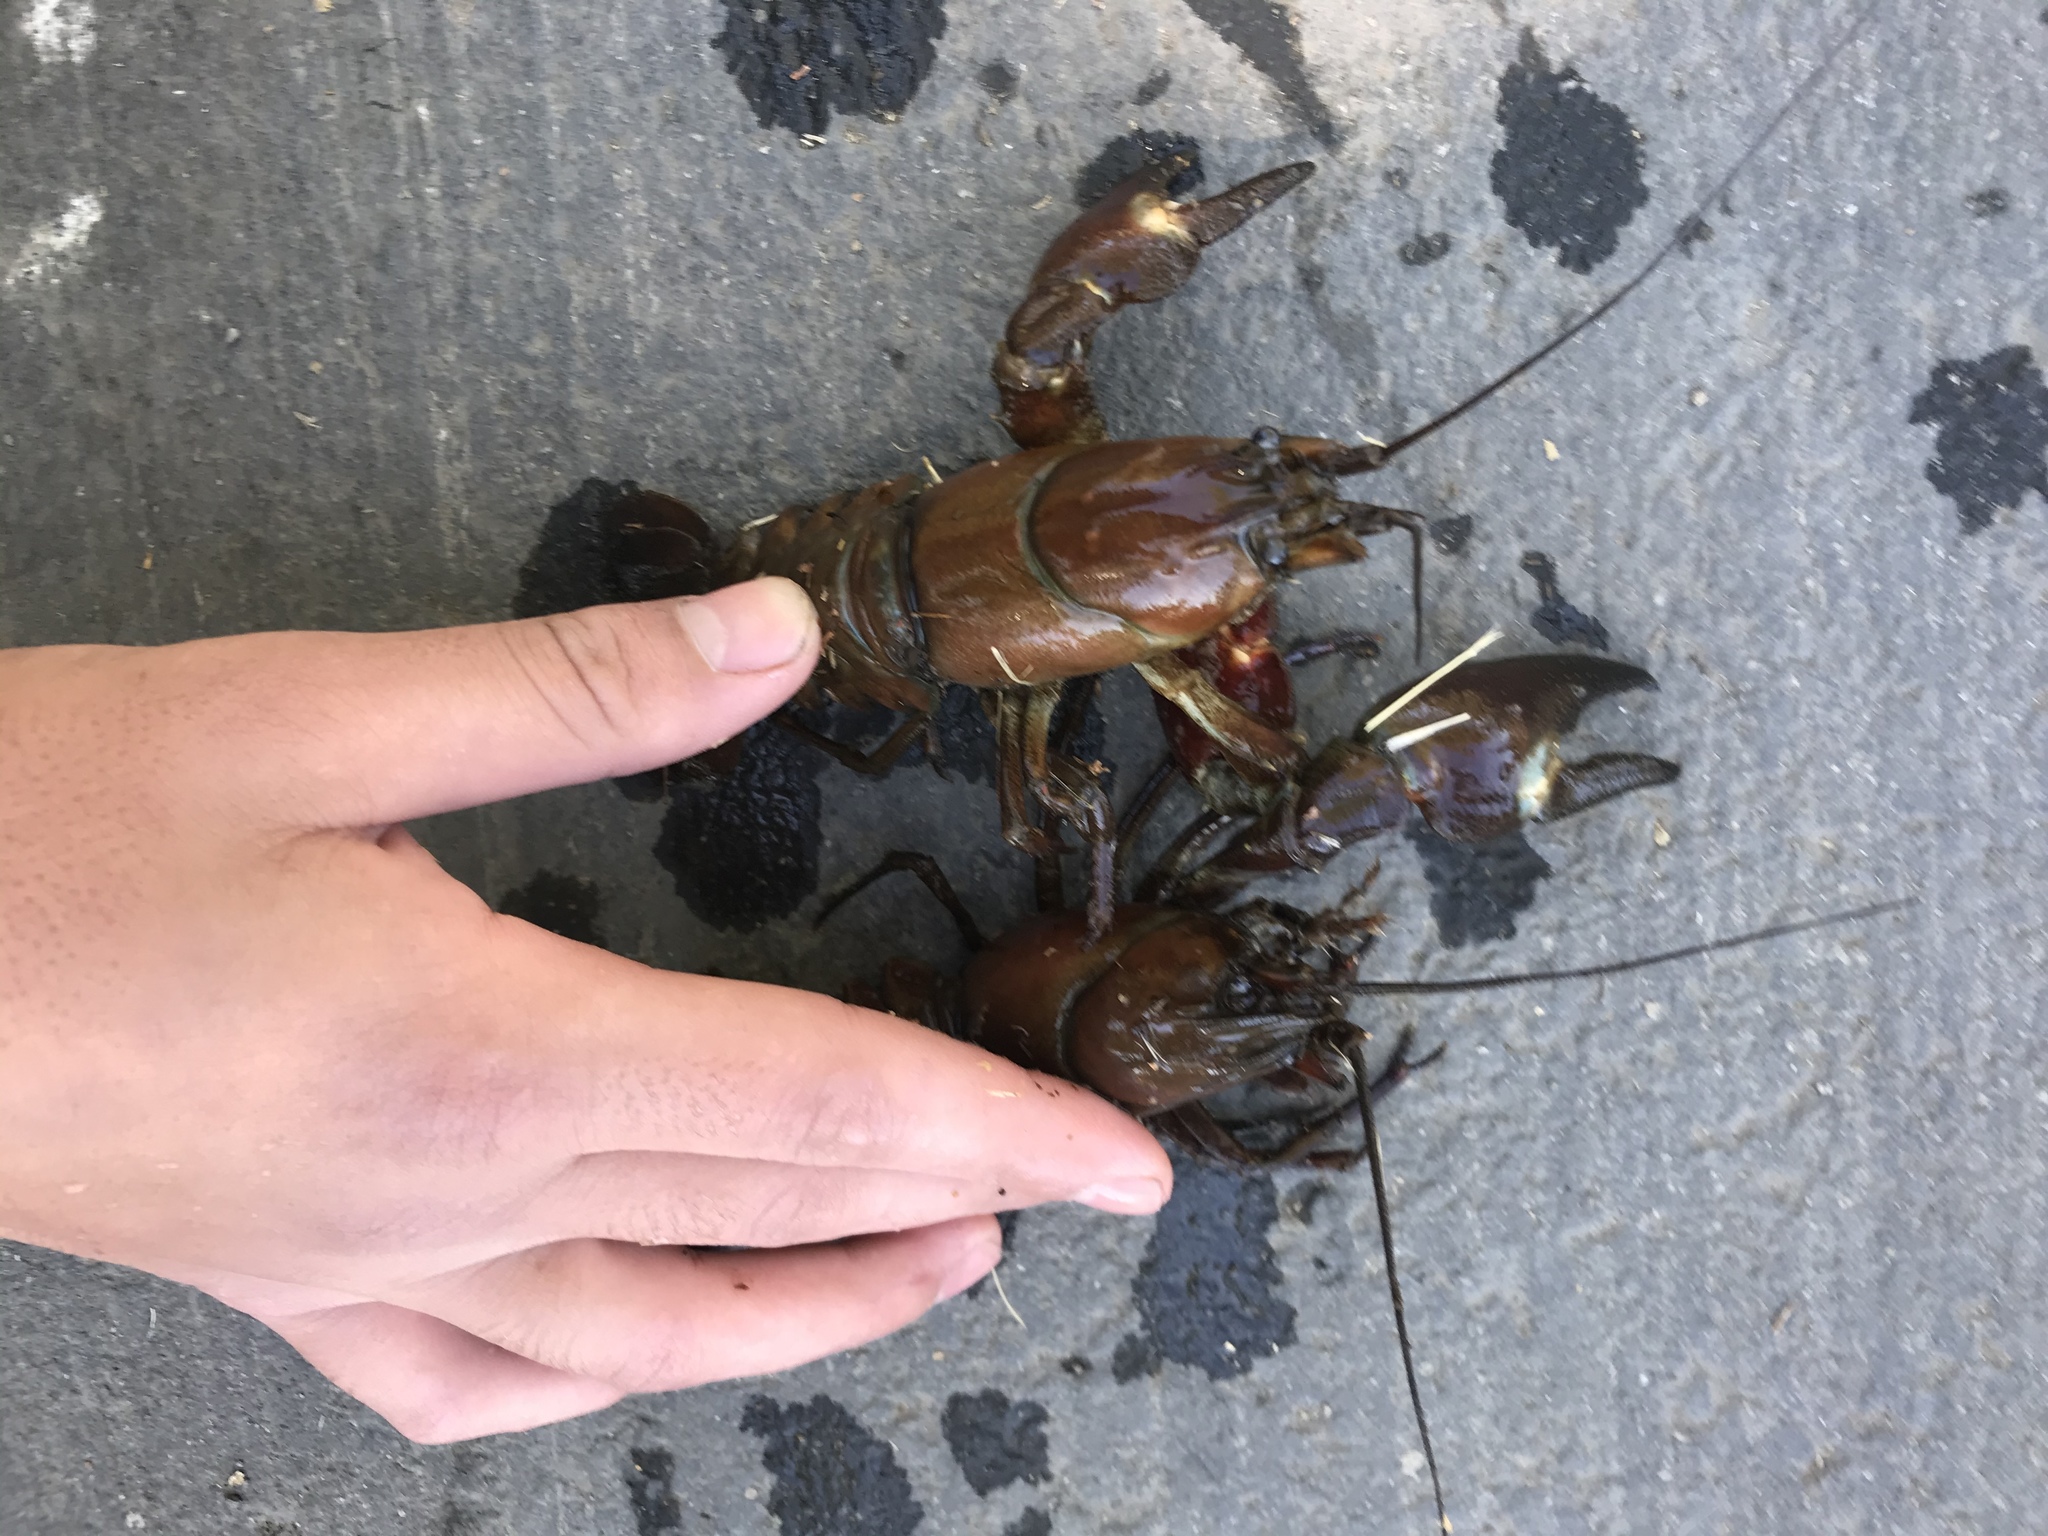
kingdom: Animalia
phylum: Arthropoda
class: Malacostraca
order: Decapoda
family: Astacidae
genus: Pacifastacus
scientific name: Pacifastacus leniusculus
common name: Signal crayfish
